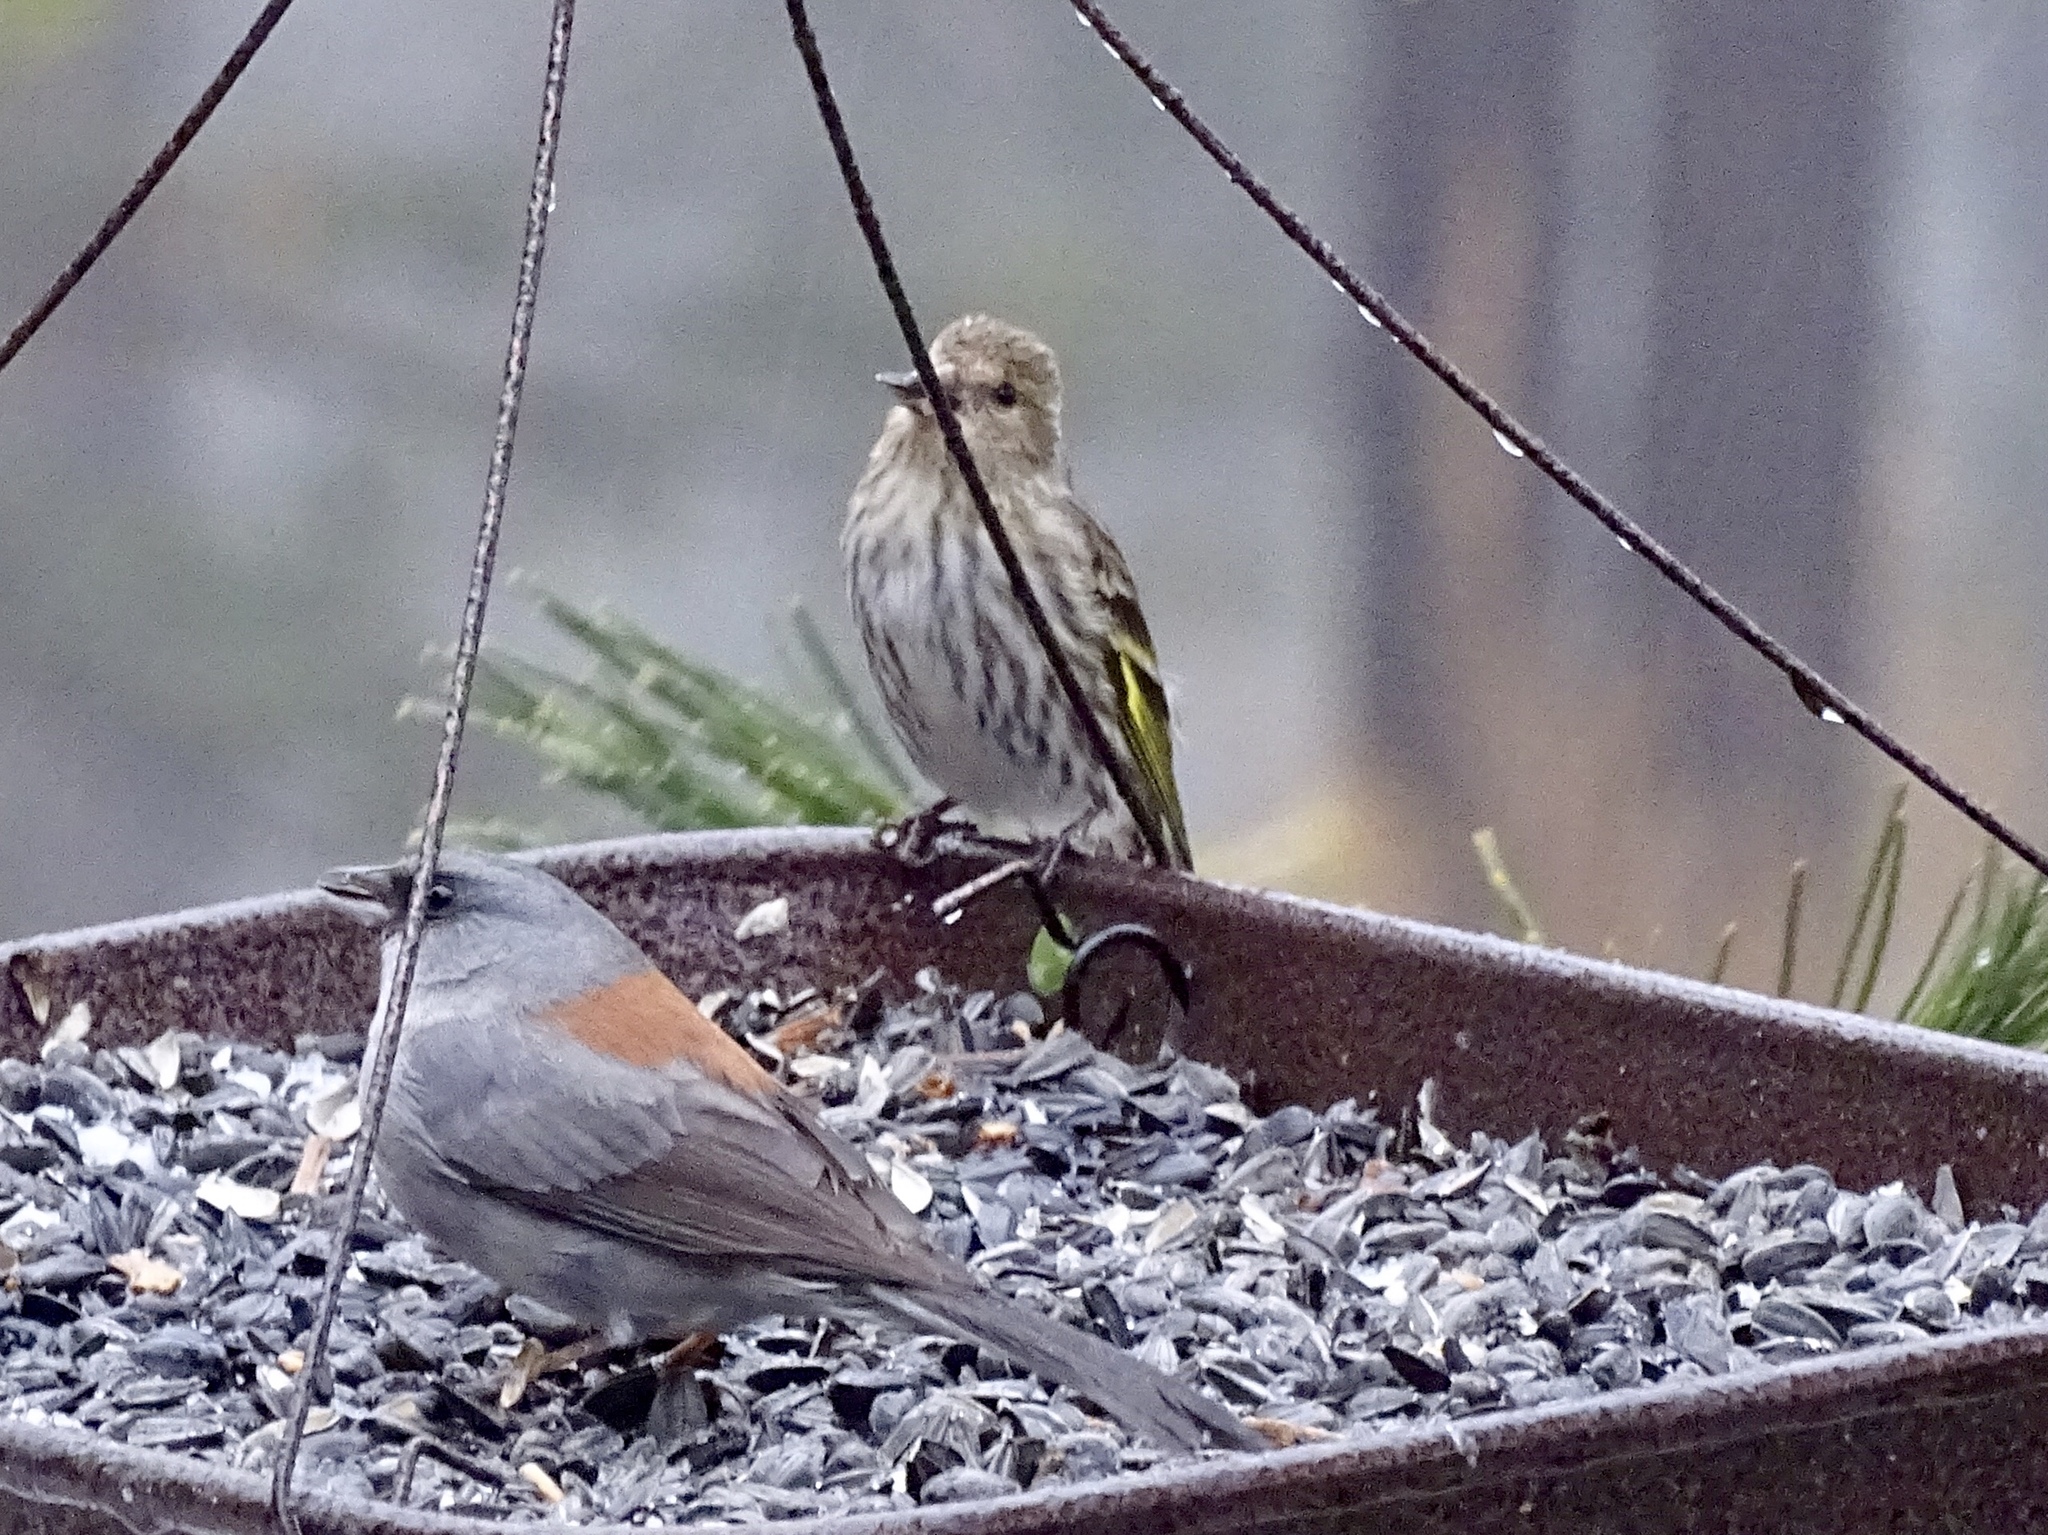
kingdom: Animalia
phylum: Chordata
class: Aves
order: Passeriformes
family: Fringillidae
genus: Spinus
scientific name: Spinus pinus
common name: Pine siskin
